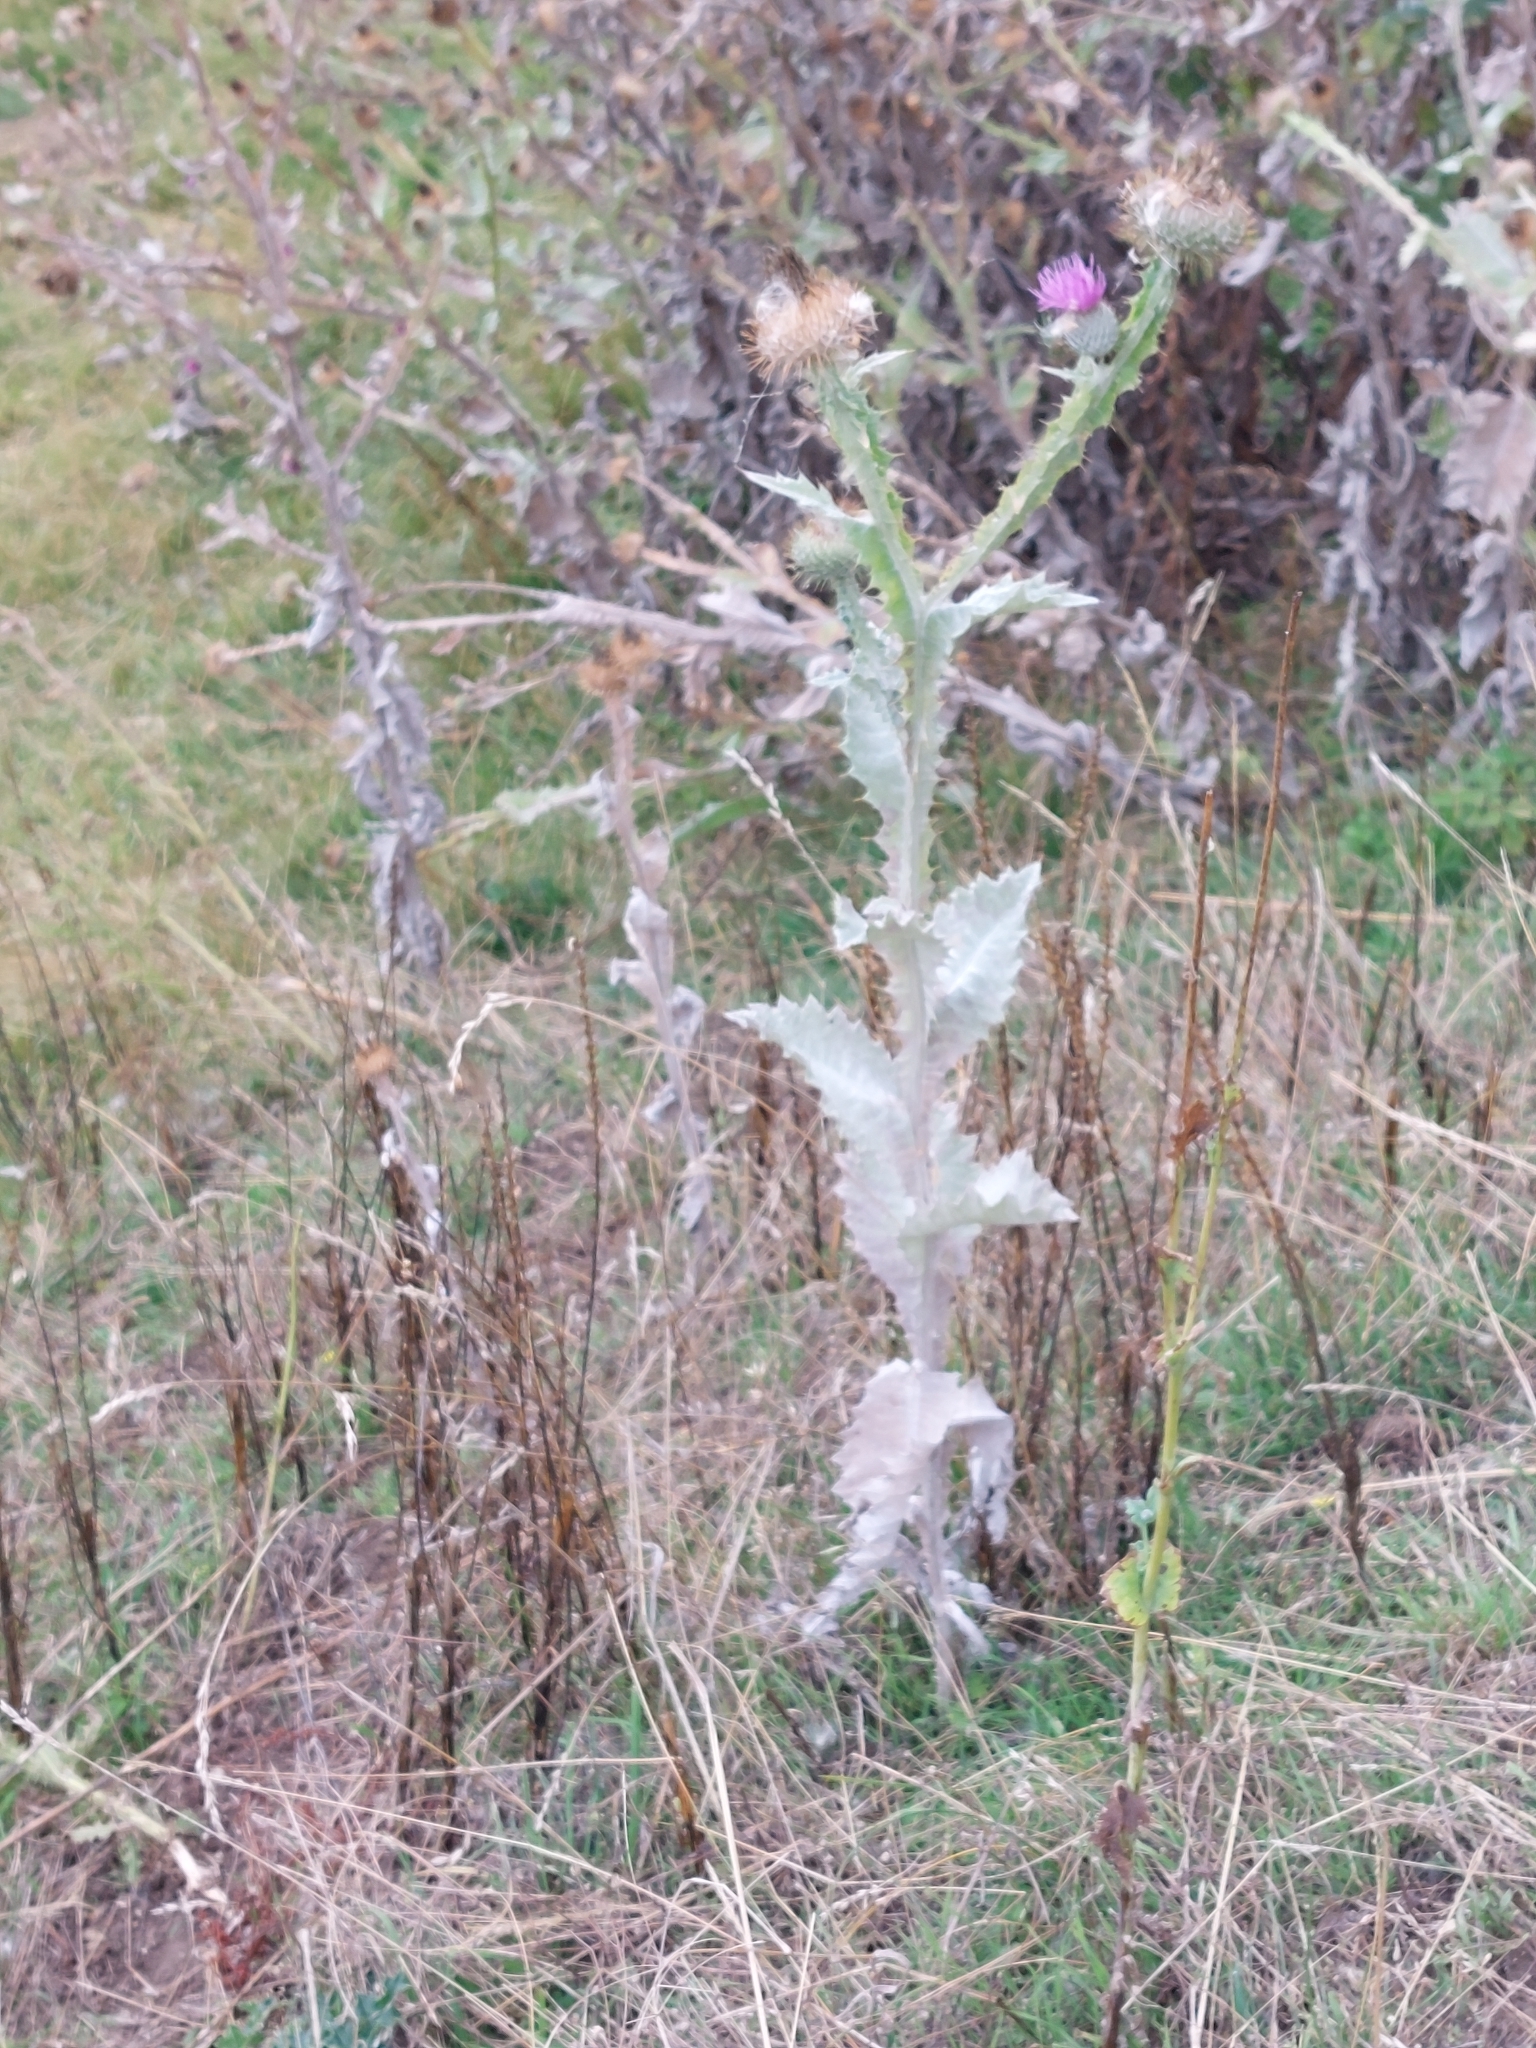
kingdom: Plantae
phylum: Tracheophyta
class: Magnoliopsida
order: Asterales
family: Asteraceae
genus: Onopordum
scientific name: Onopordum acanthium
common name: Scotch thistle
